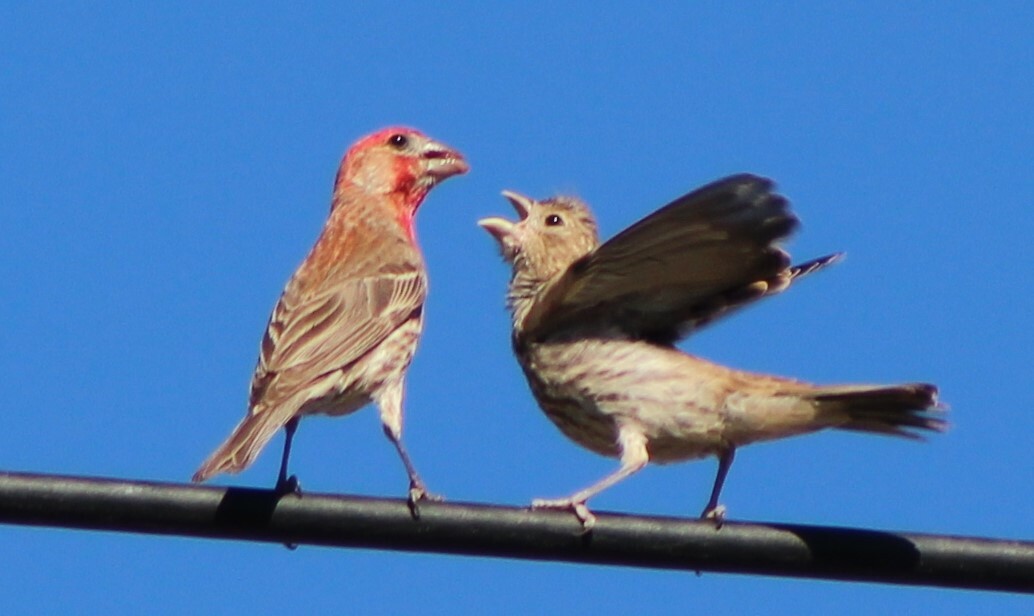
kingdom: Animalia
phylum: Chordata
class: Aves
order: Passeriformes
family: Fringillidae
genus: Haemorhous
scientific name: Haemorhous mexicanus
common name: House finch
